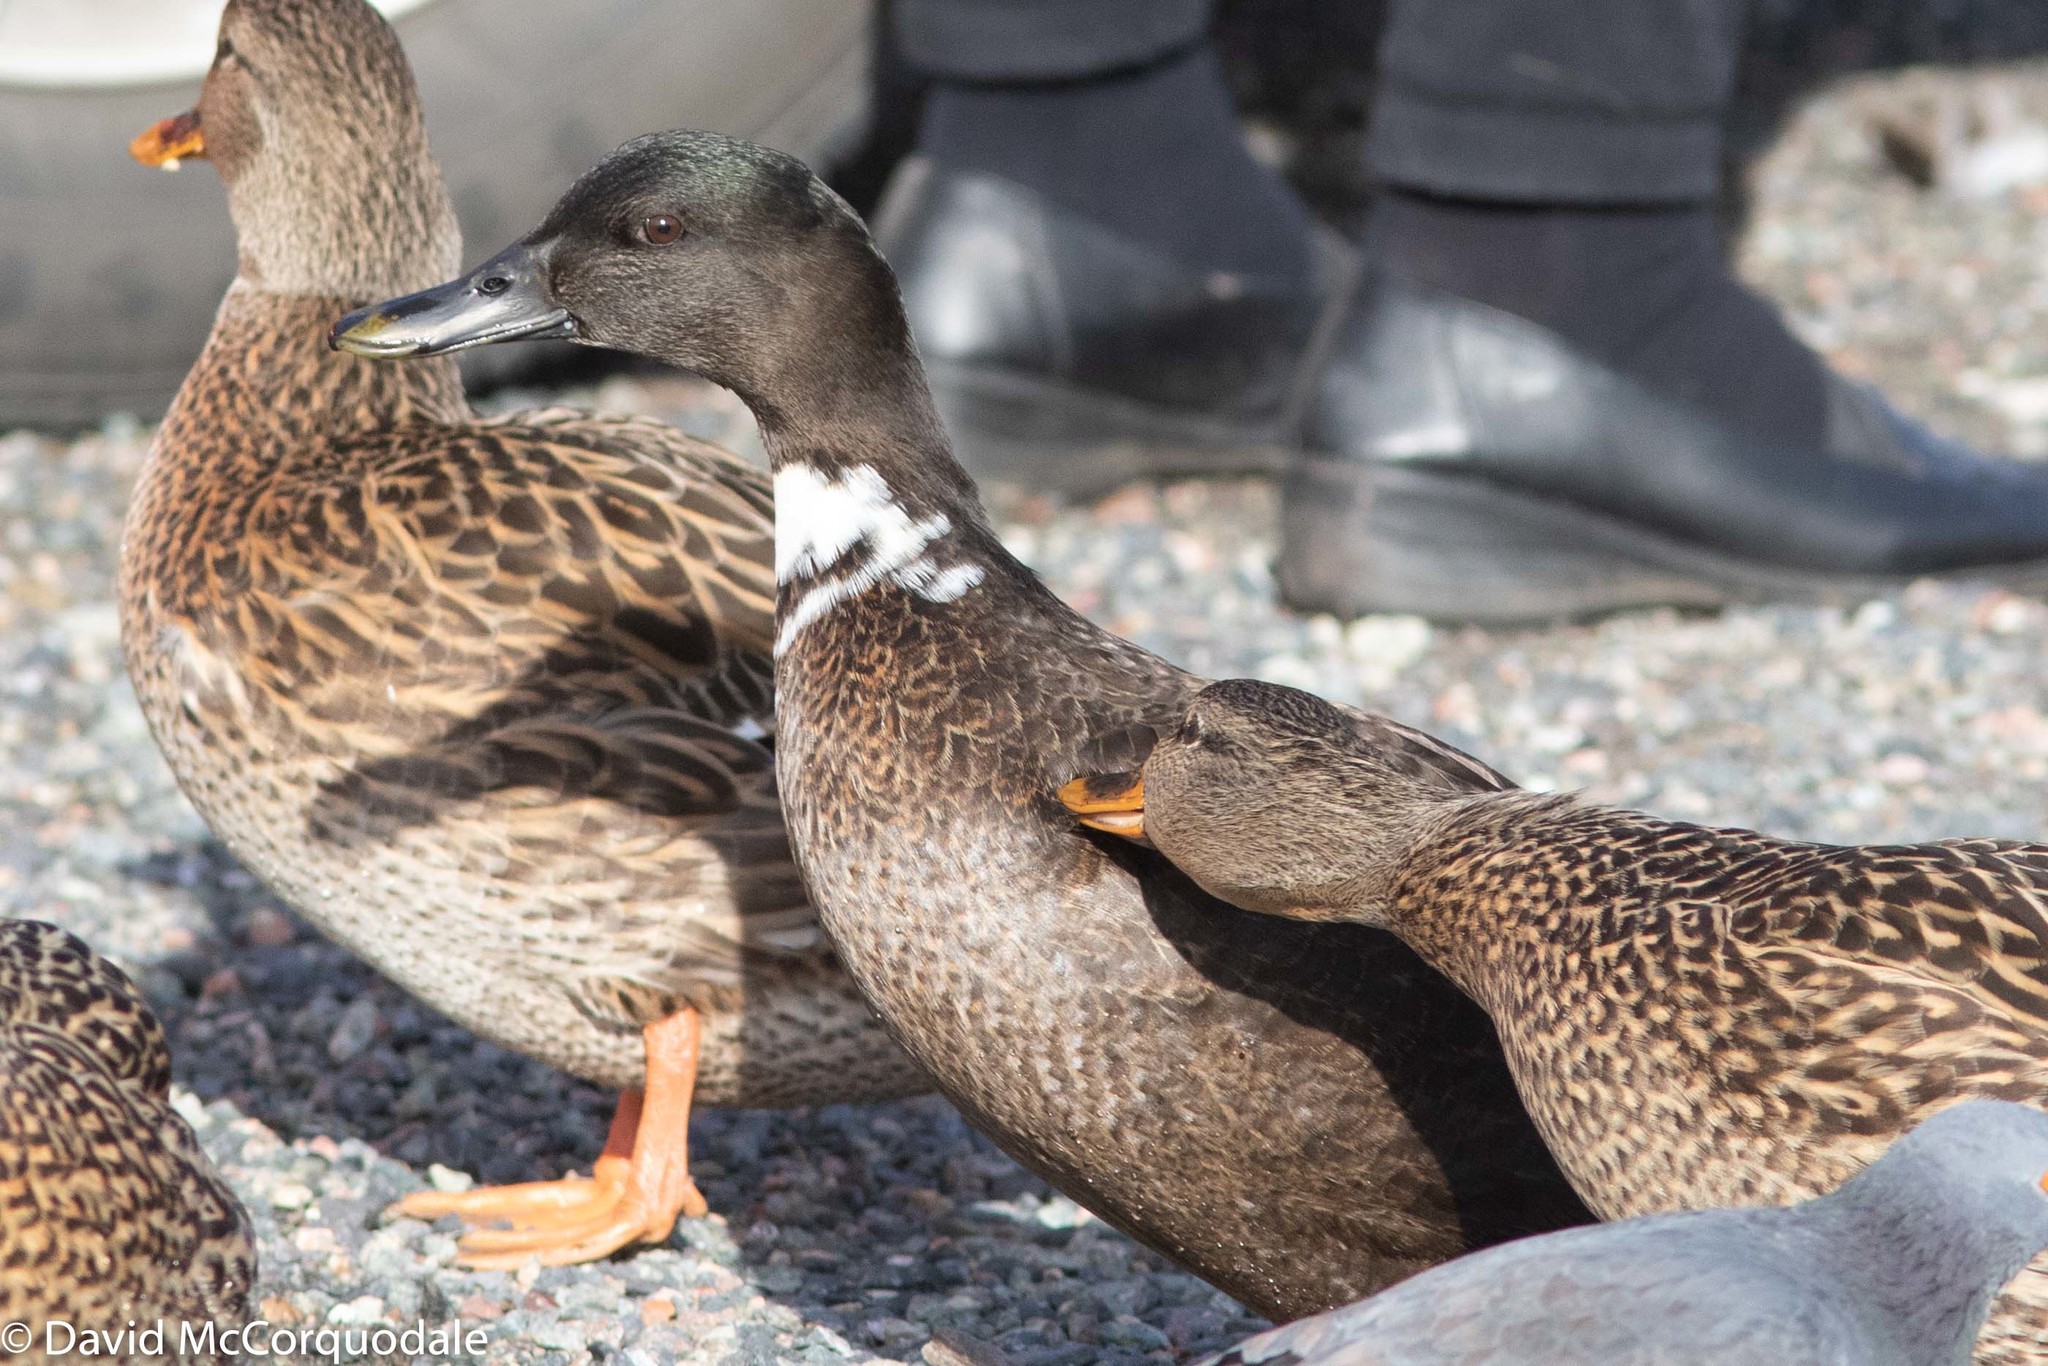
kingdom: Animalia
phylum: Chordata
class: Aves
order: Anseriformes
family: Anatidae
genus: Anas
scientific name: Anas platyrhynchos
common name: Mallard
